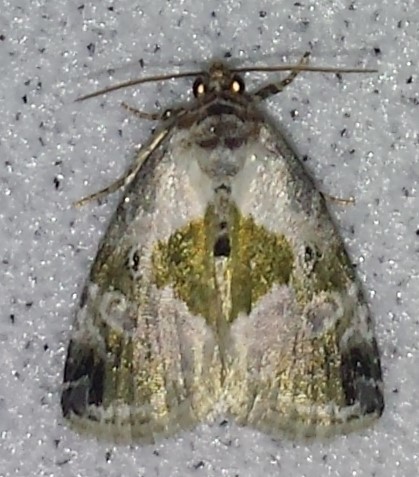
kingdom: Animalia
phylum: Arthropoda
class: Insecta
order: Lepidoptera
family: Noctuidae
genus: Maliattha
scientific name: Maliattha synochitis
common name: Black-dotted glyph
